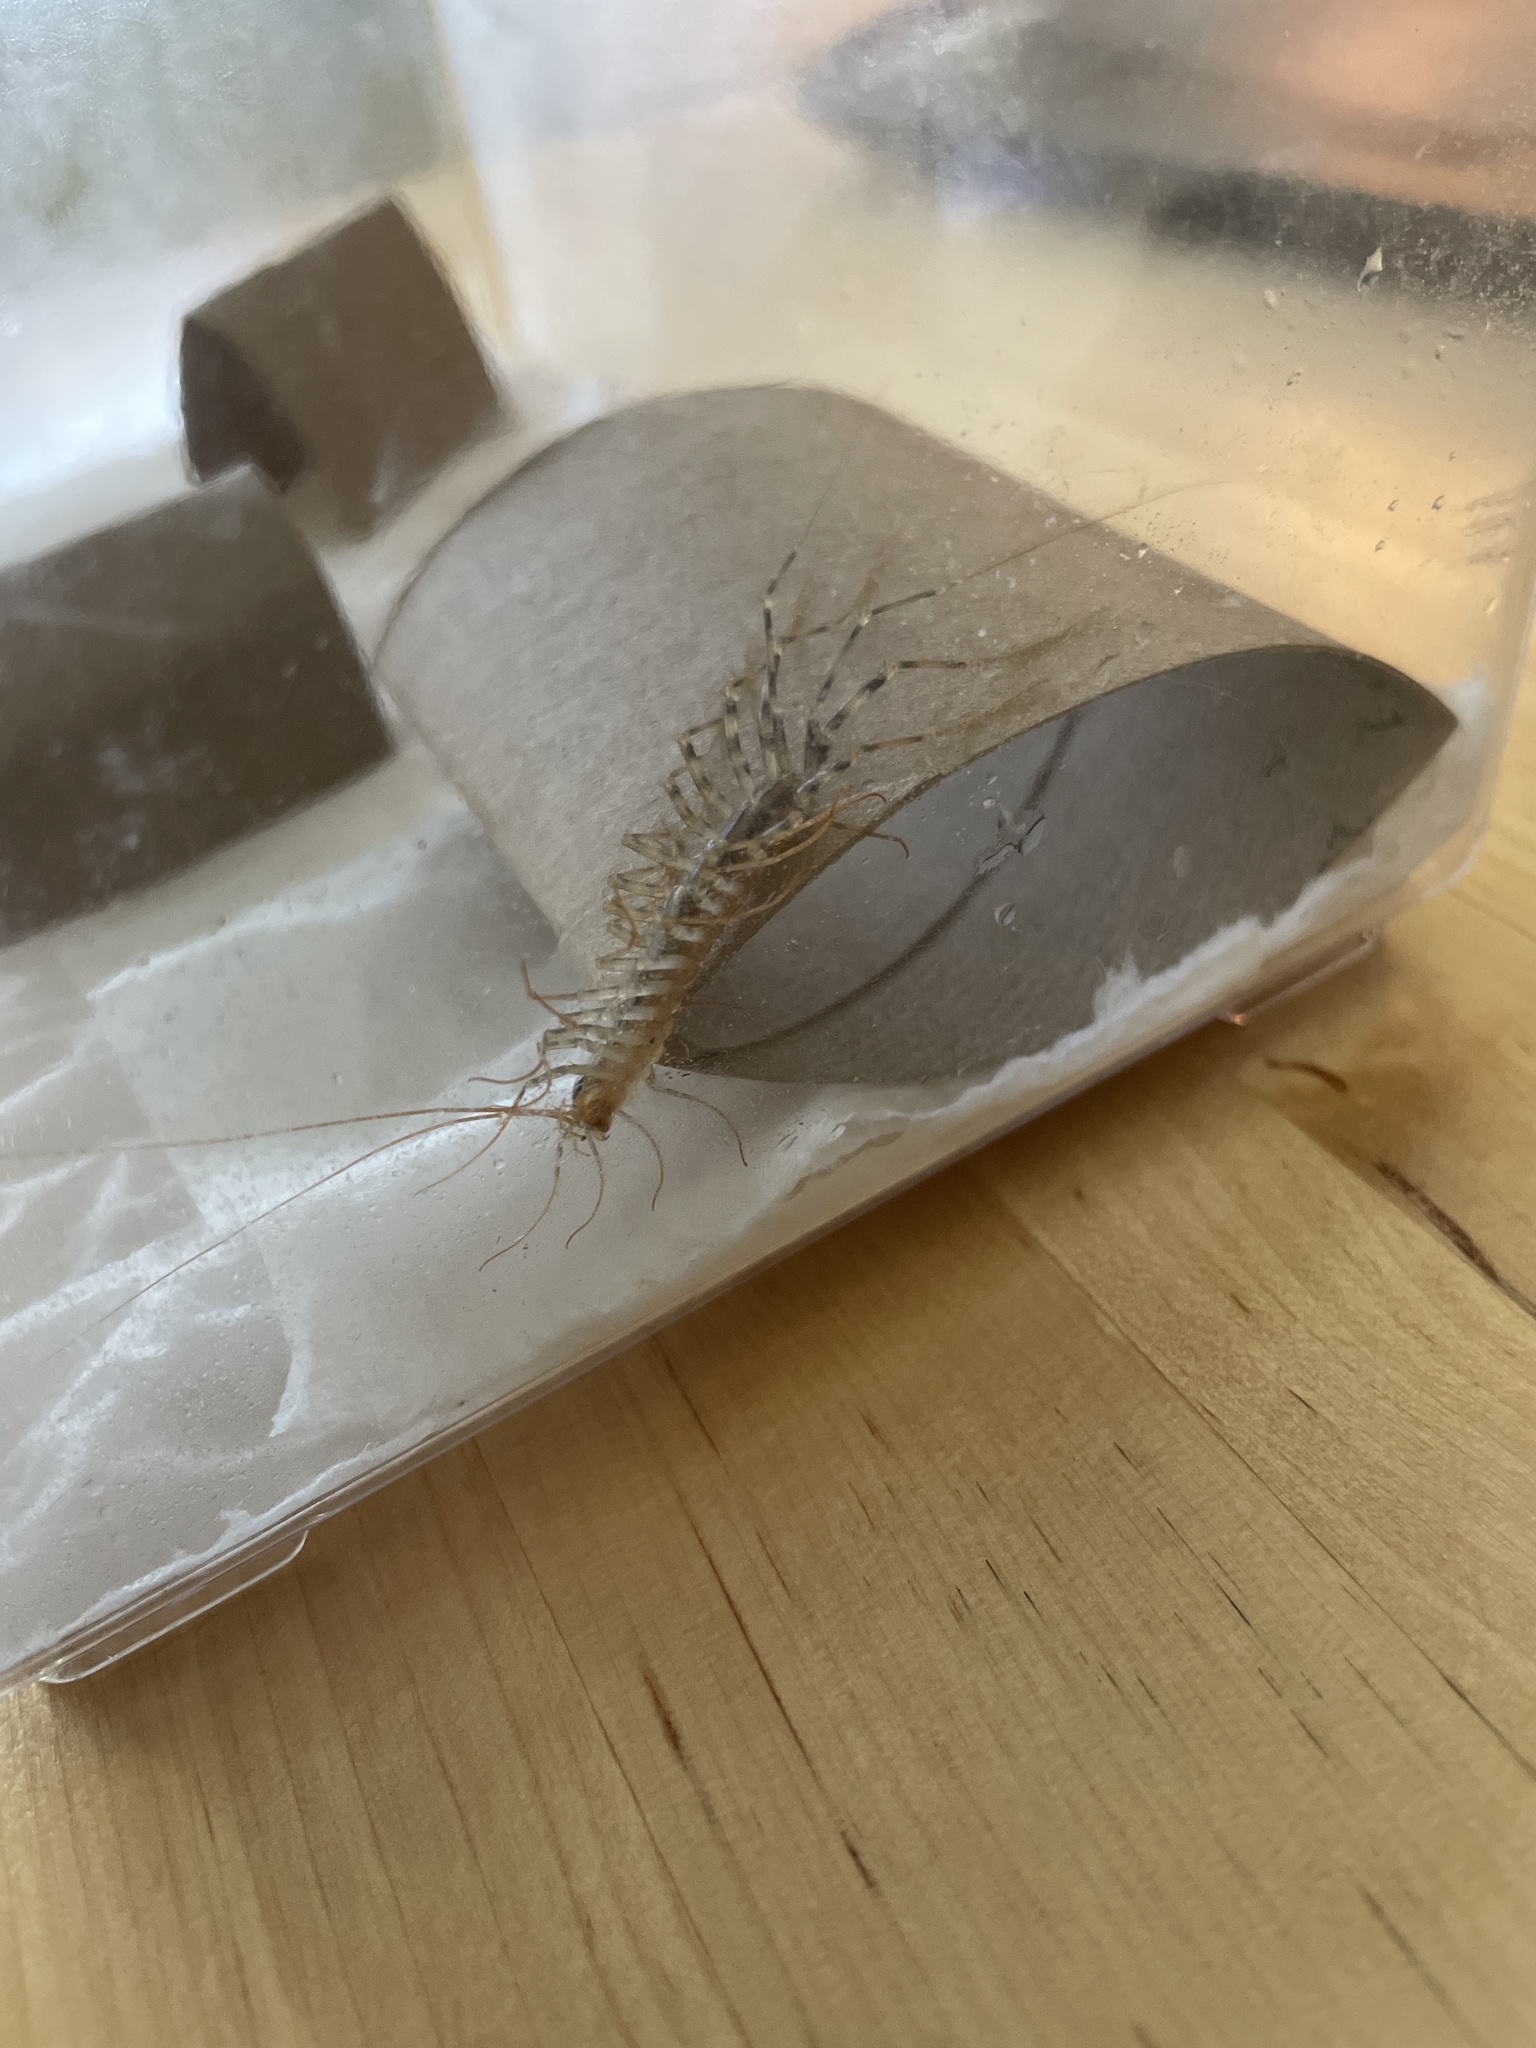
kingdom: Animalia
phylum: Arthropoda
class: Chilopoda
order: Scutigeromorpha
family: Scutigeridae
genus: Scutigera
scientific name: Scutigera coleoptrata
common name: House centipede
